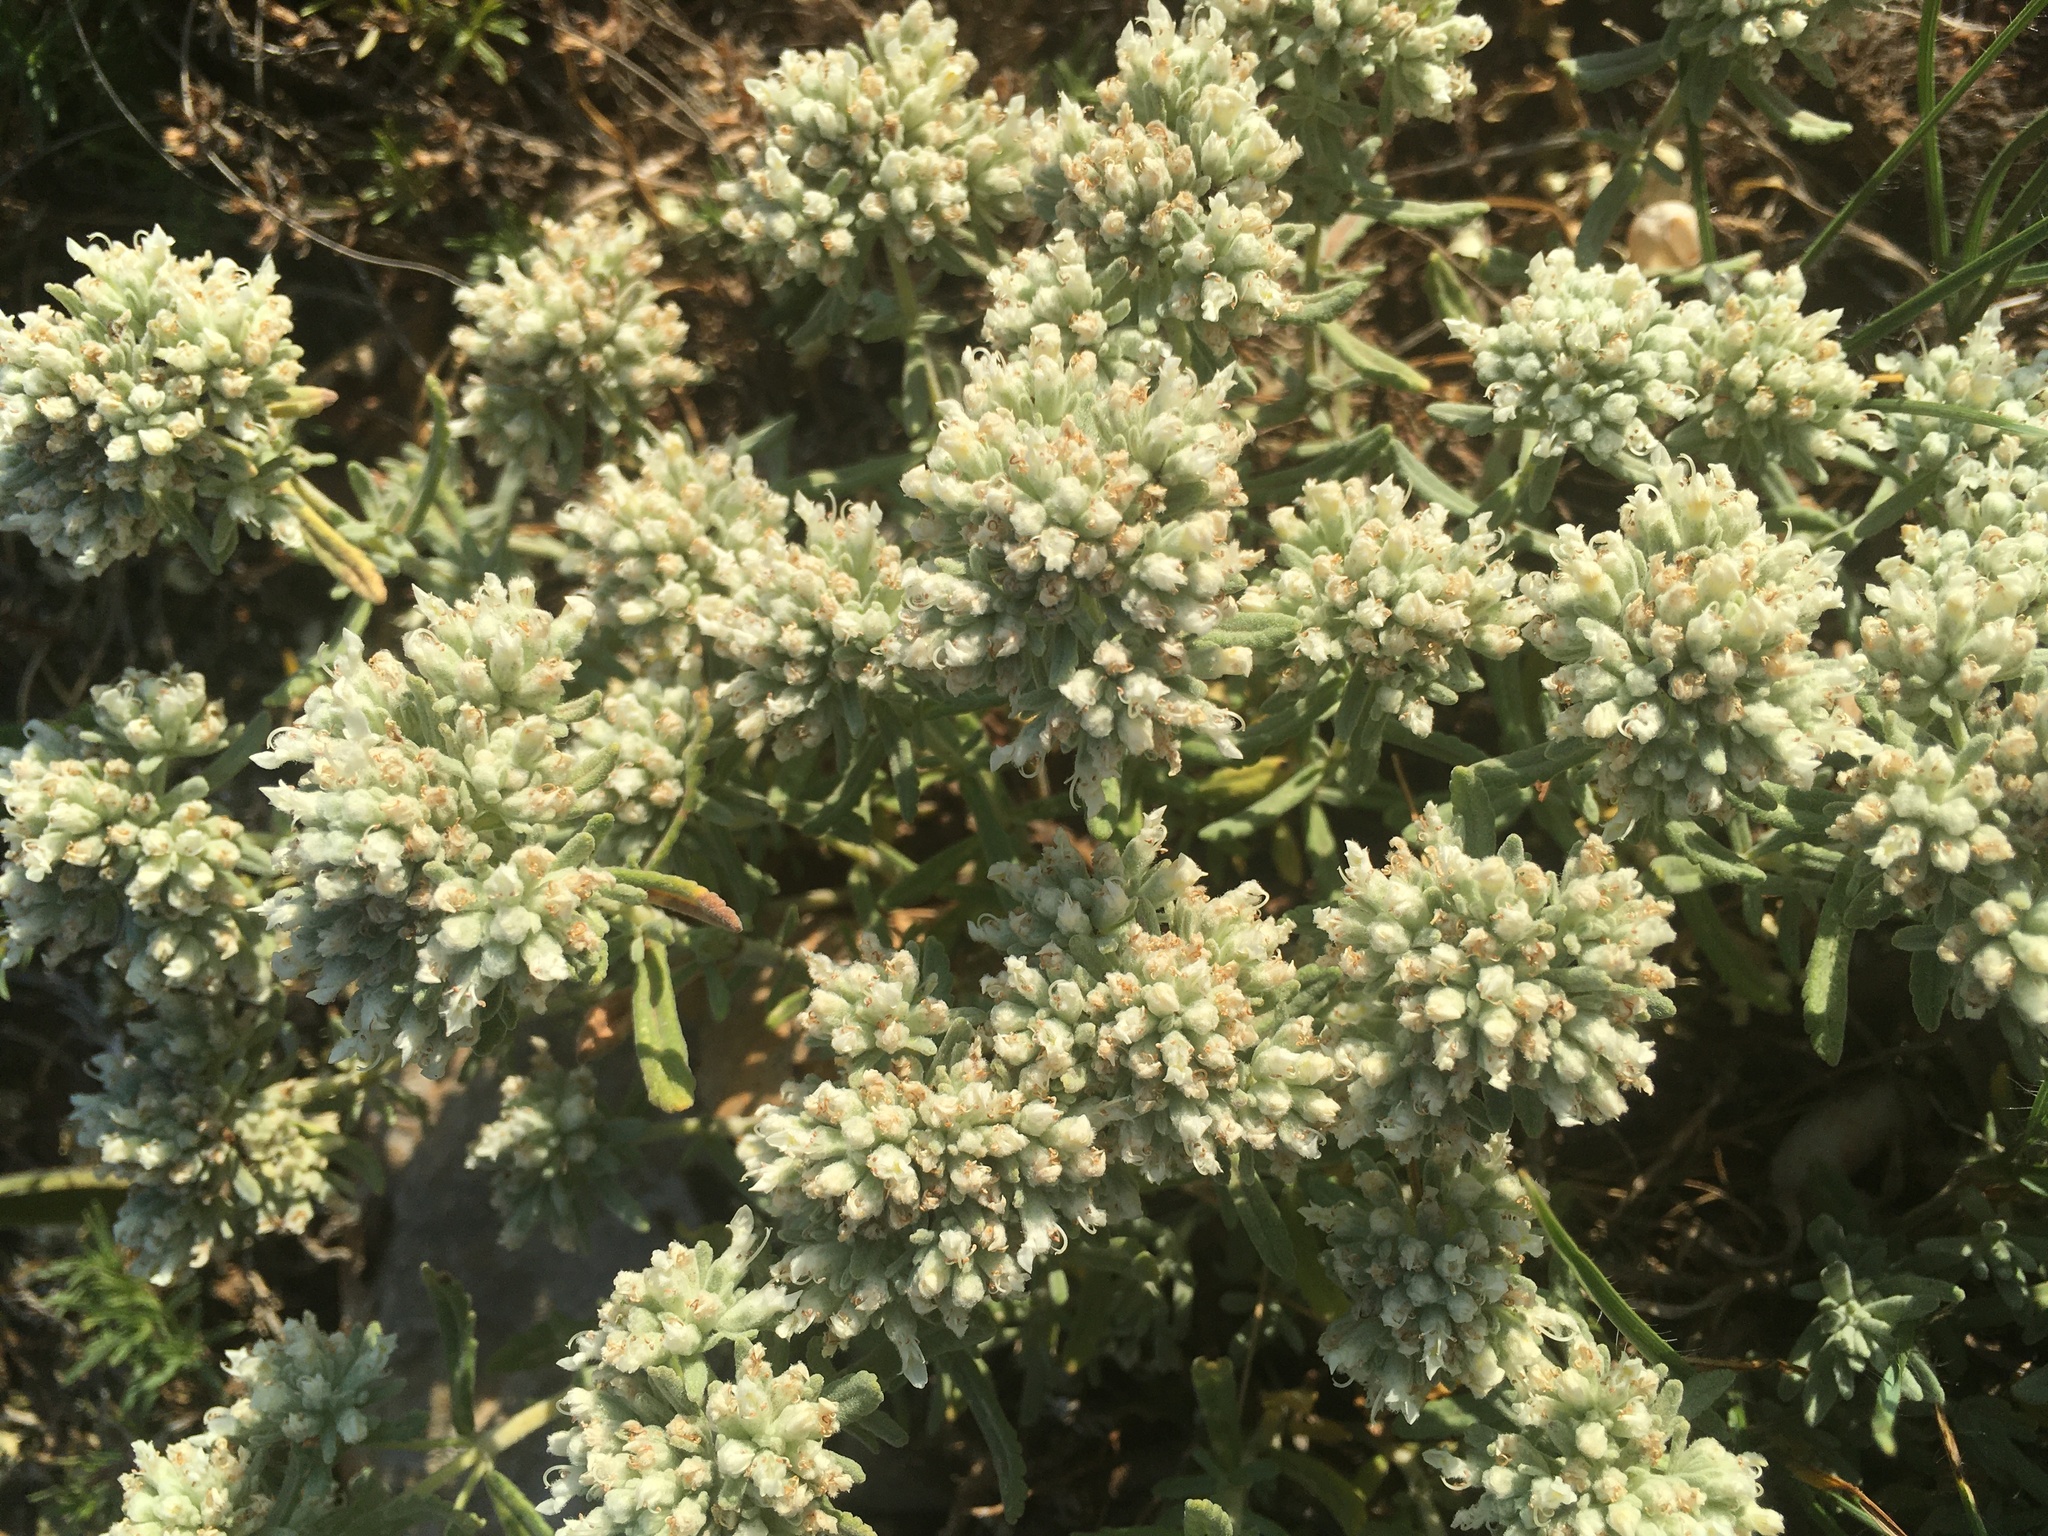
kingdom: Plantae
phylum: Tracheophyta
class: Magnoliopsida
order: Lamiales
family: Lamiaceae
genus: Teucrium
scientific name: Teucrium polium
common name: Poley
